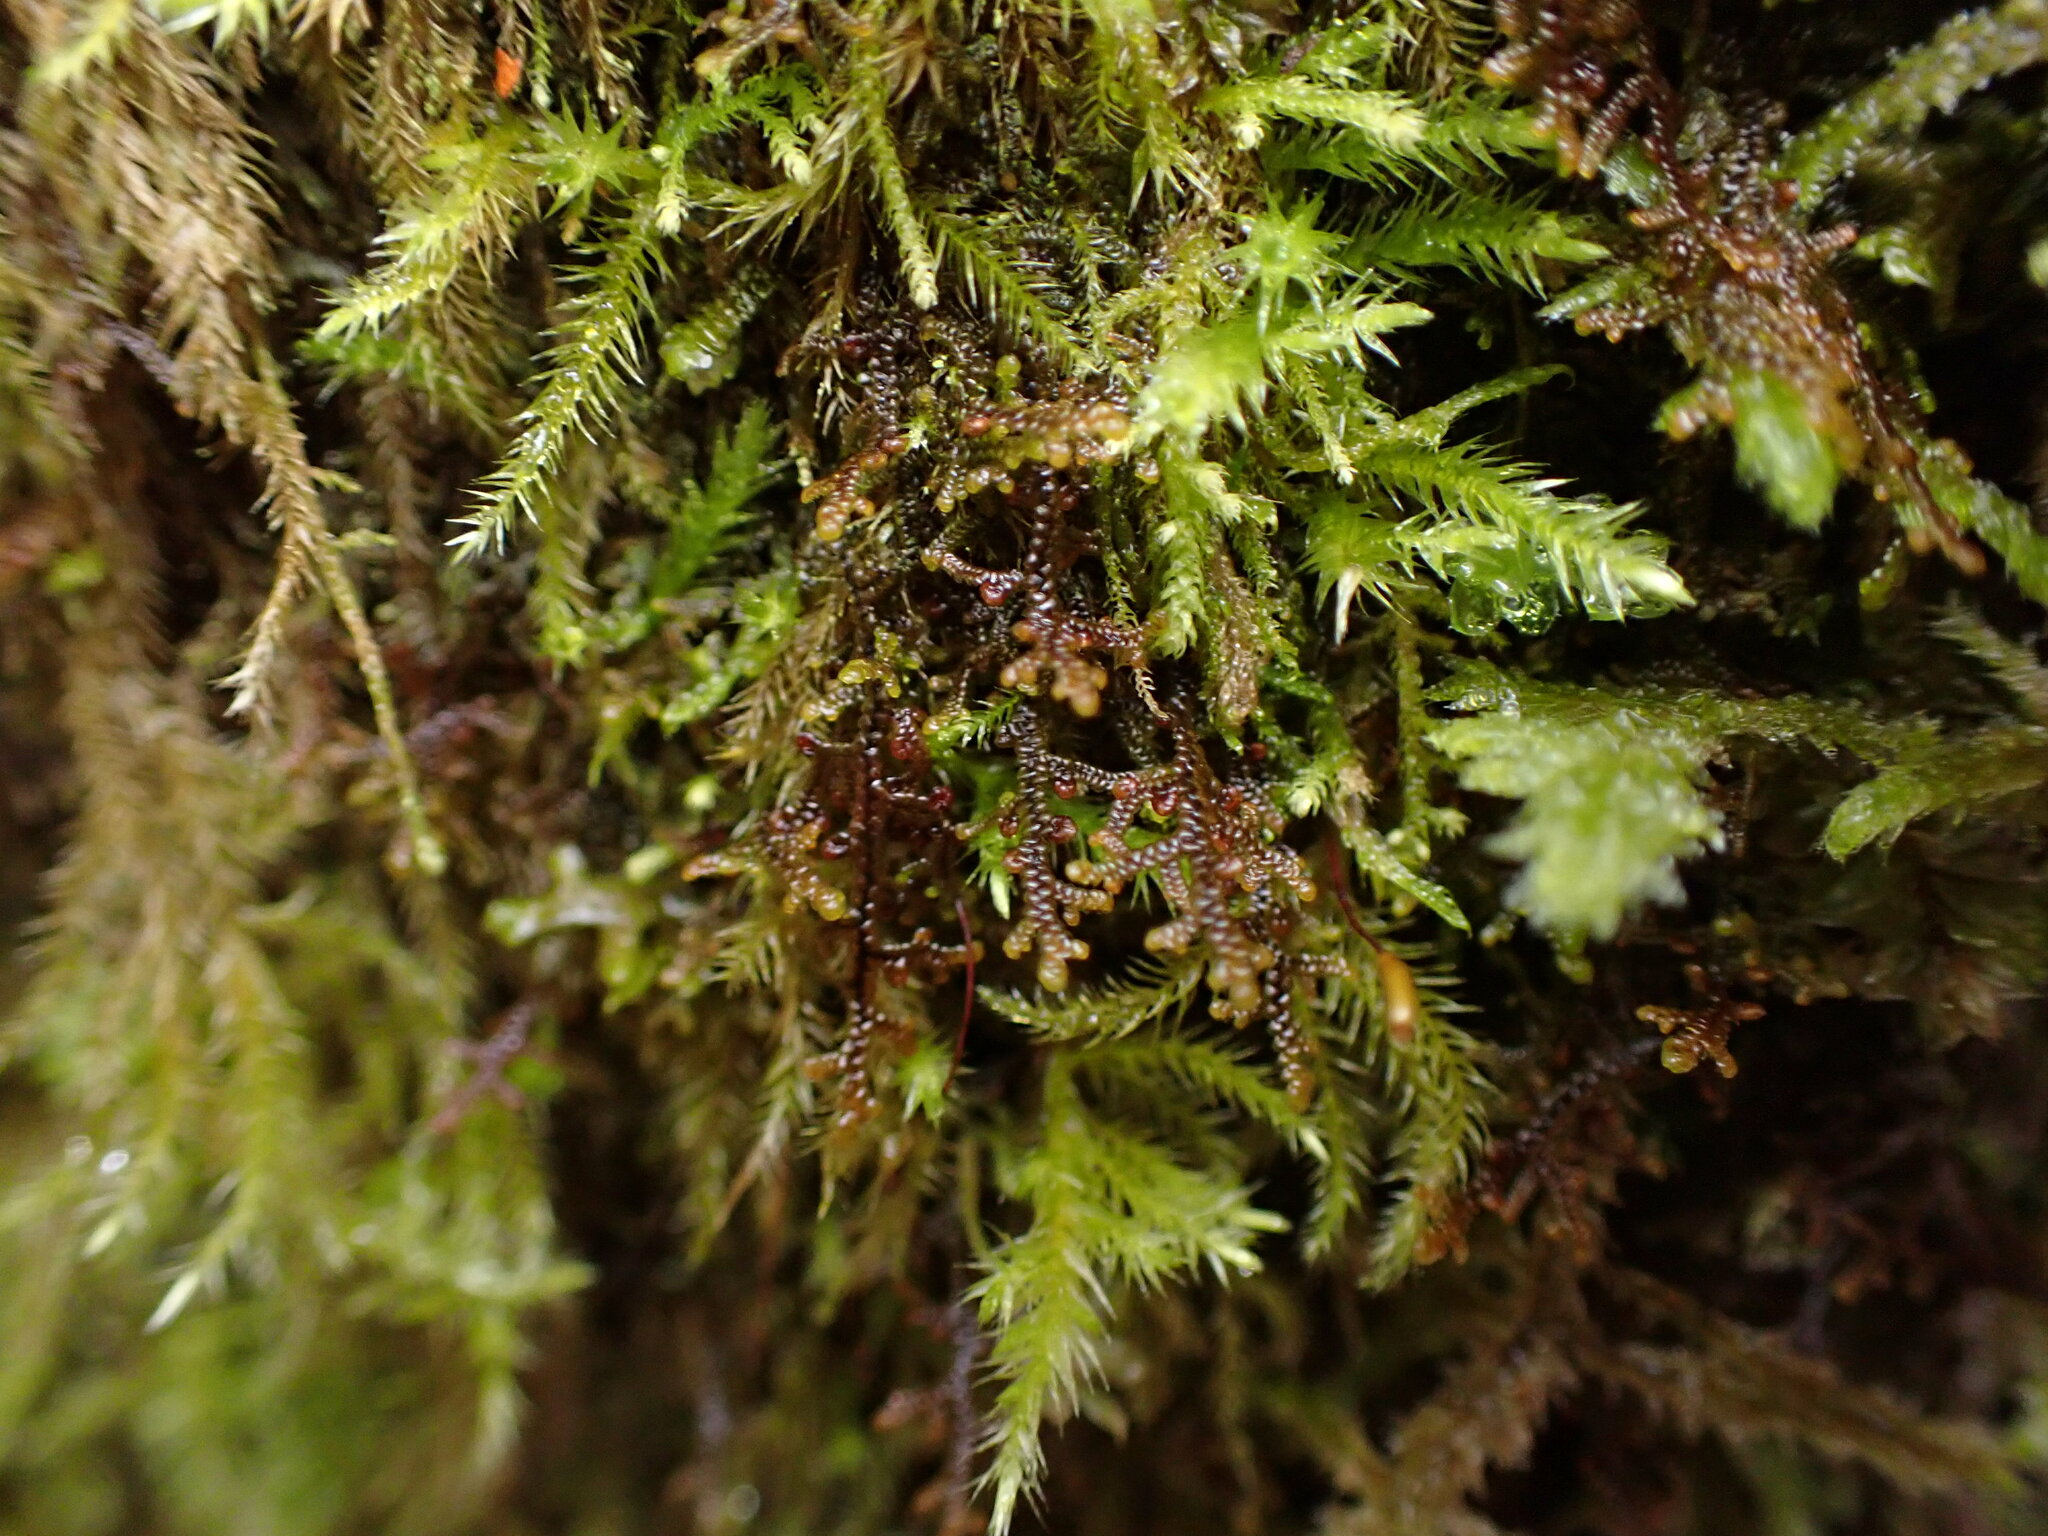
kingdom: Plantae
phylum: Marchantiophyta
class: Jungermanniopsida
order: Porellales
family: Frullaniaceae
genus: Frullania
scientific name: Frullania nisquallensis
